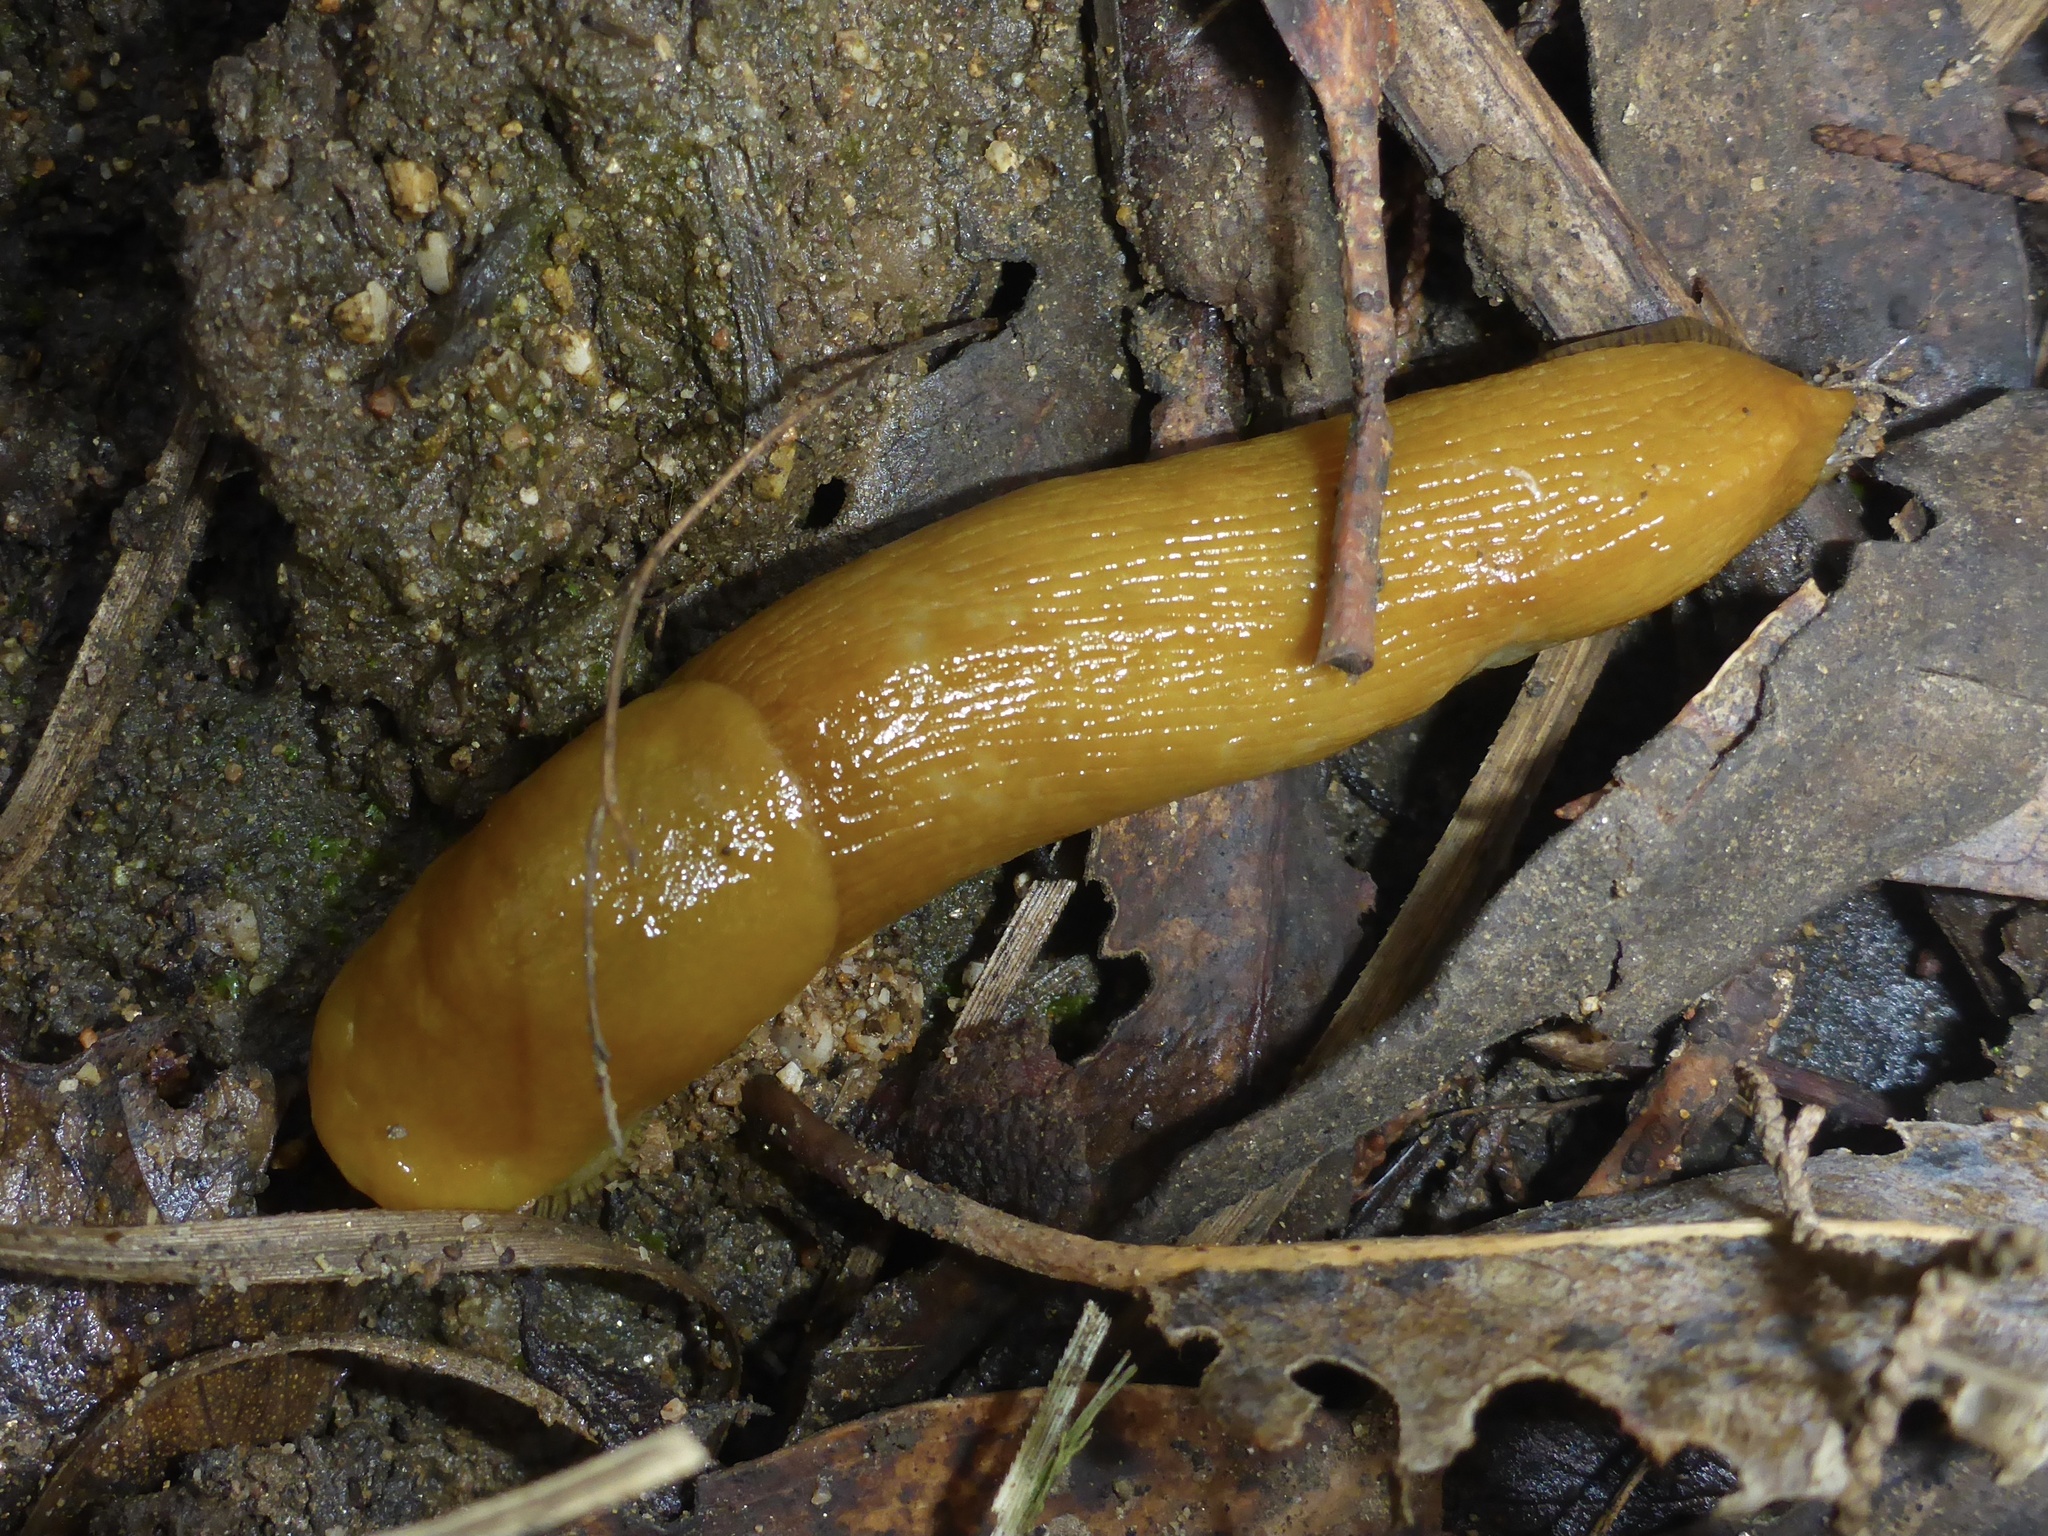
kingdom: Animalia
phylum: Mollusca
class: Gastropoda
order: Stylommatophora
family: Ariolimacidae
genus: Ariolimax
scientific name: Ariolimax californicus
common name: California banana slug
